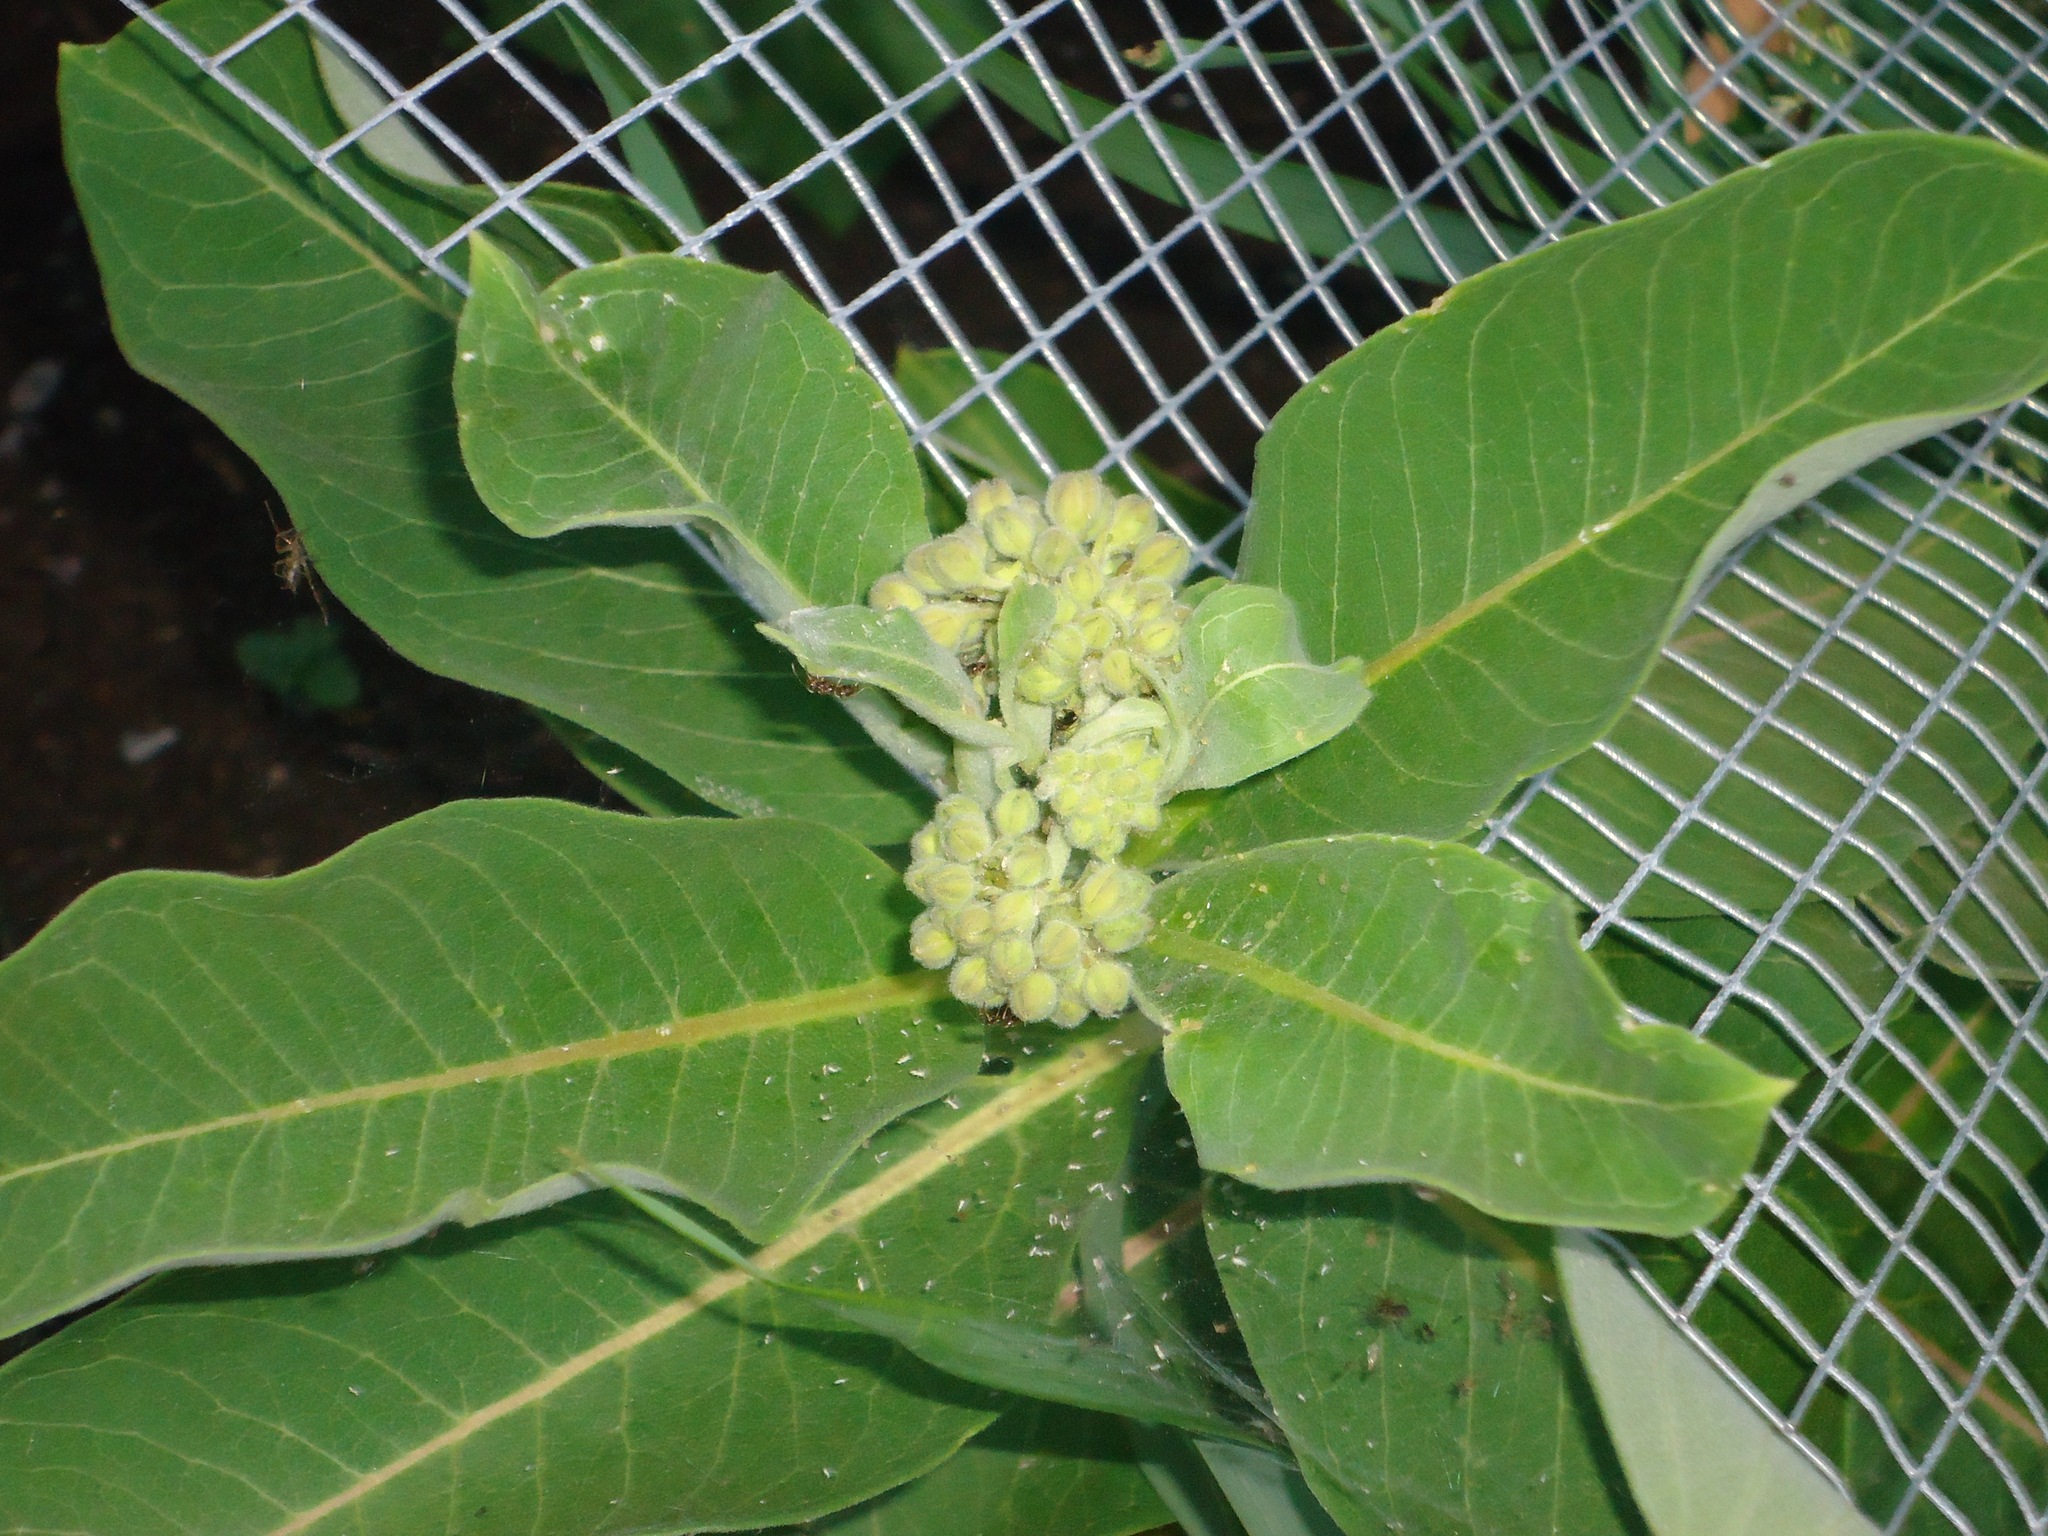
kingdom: Plantae
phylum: Tracheophyta
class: Magnoliopsida
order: Gentianales
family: Apocynaceae
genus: Asclepias
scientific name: Asclepias syriaca
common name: Common milkweed
